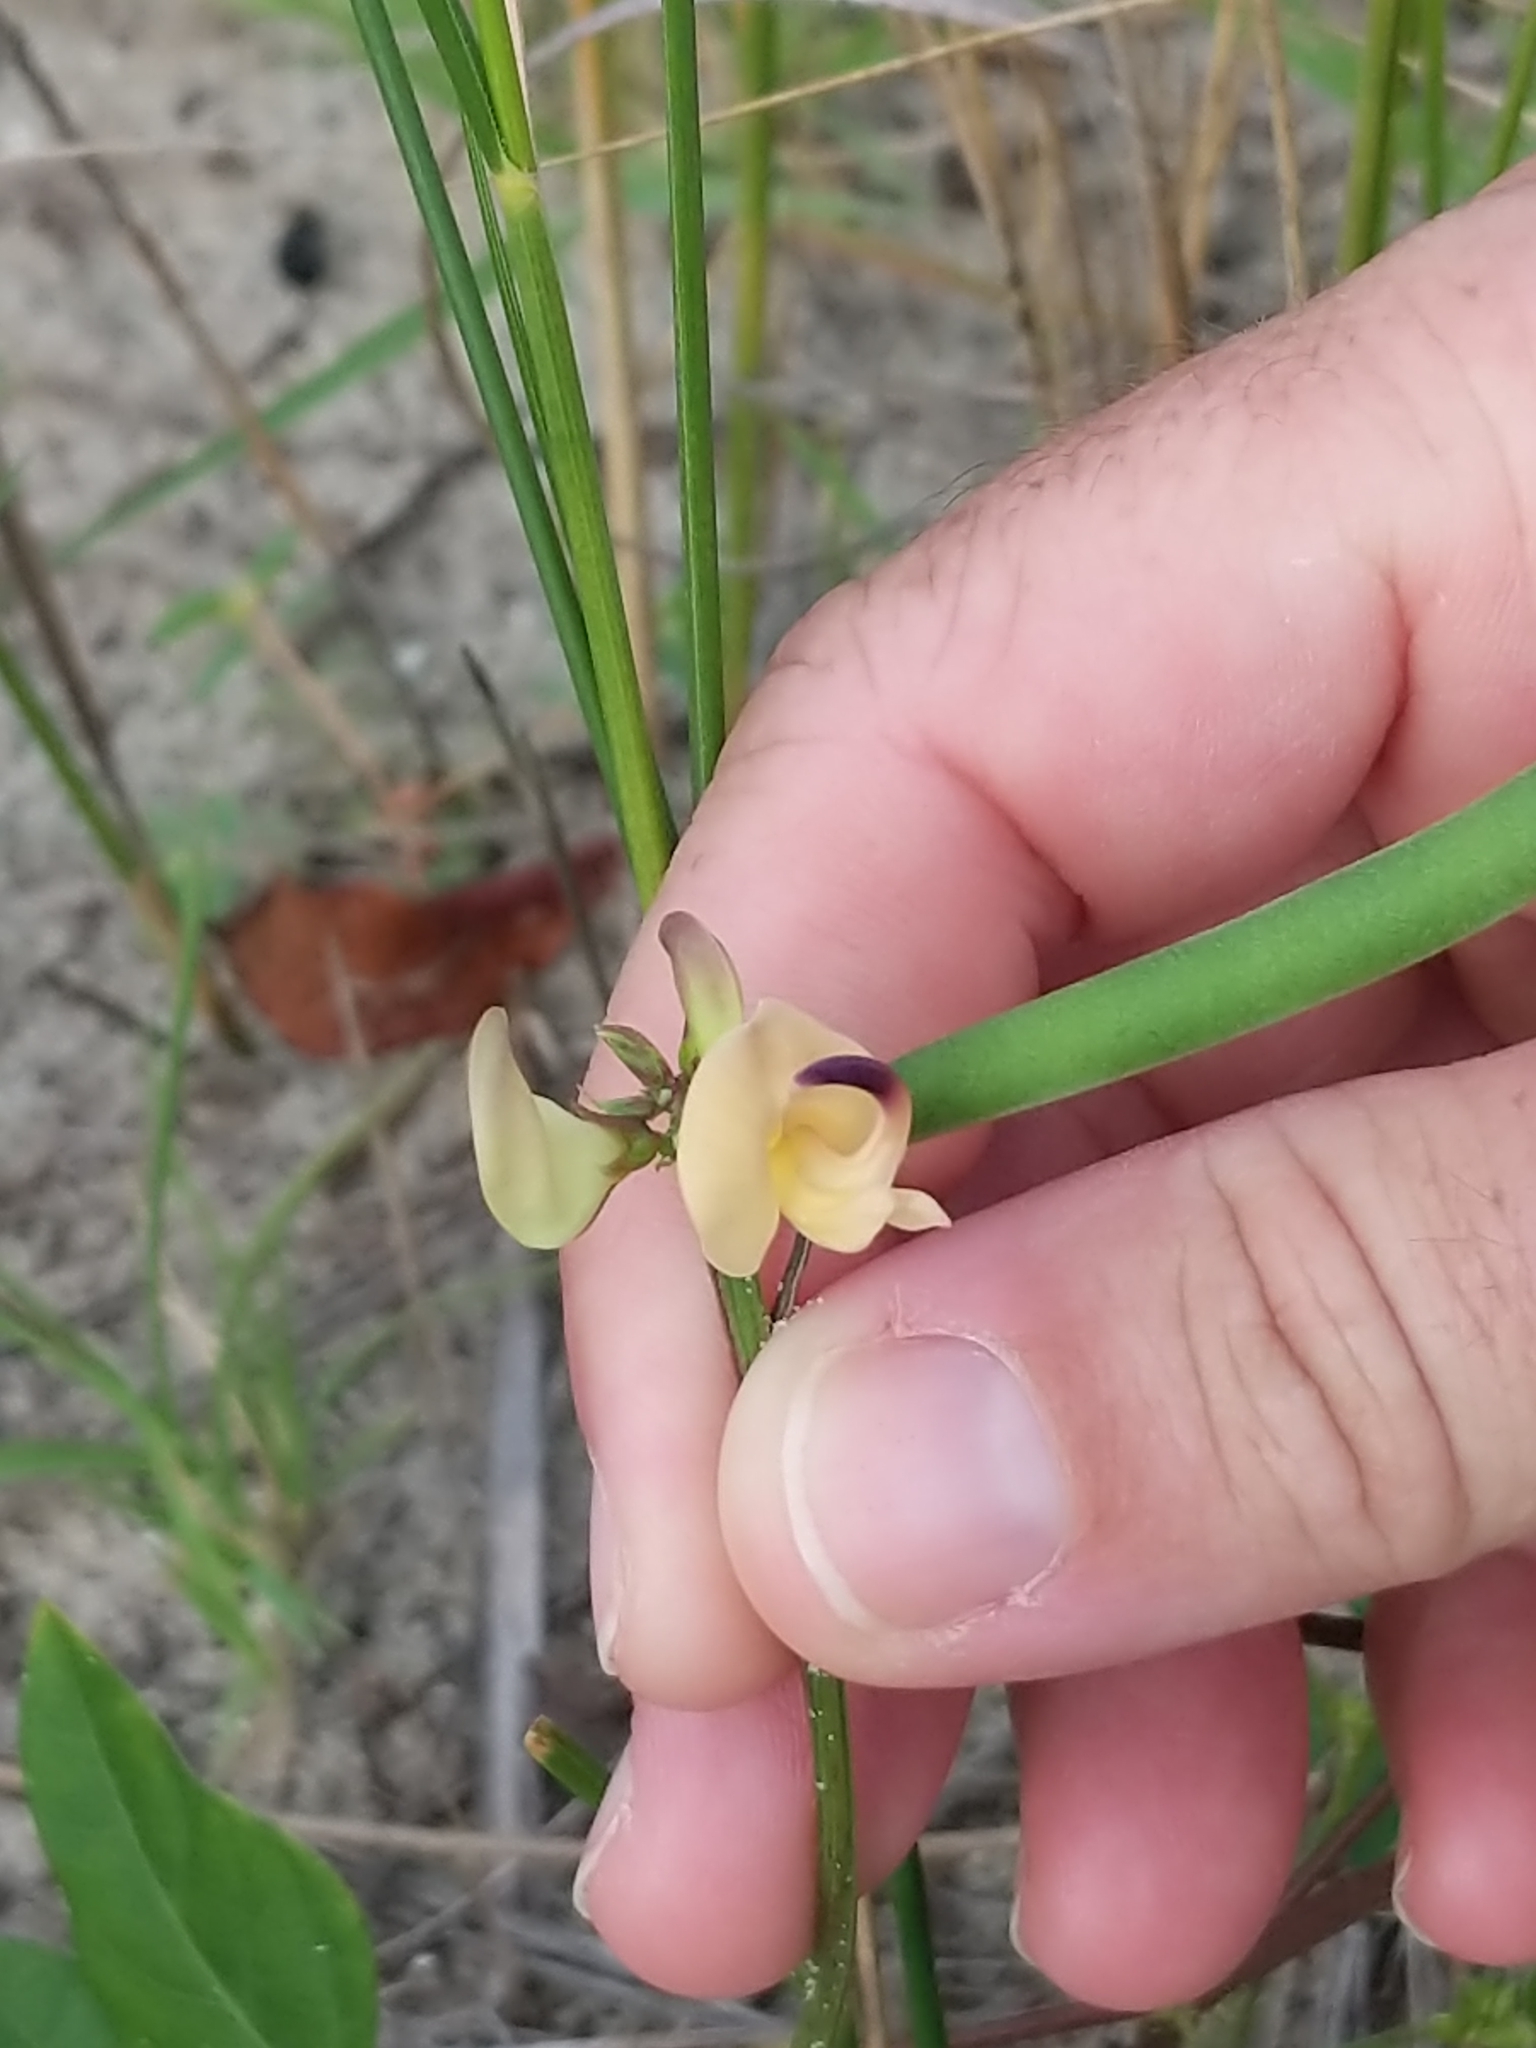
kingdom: Plantae
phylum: Tracheophyta
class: Magnoliopsida
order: Fabales
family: Fabaceae
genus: Strophostyles
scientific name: Strophostyles helvola
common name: Trailing wild bean
